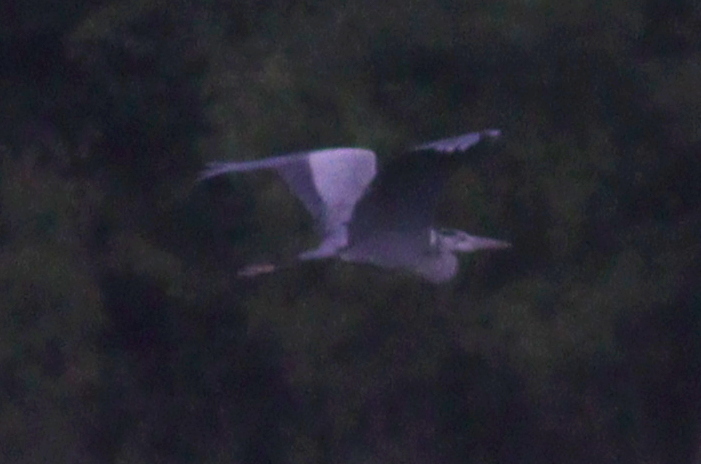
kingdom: Animalia
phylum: Chordata
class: Aves
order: Pelecaniformes
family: Ardeidae
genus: Ardea
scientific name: Ardea cinerea
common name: Grey heron
